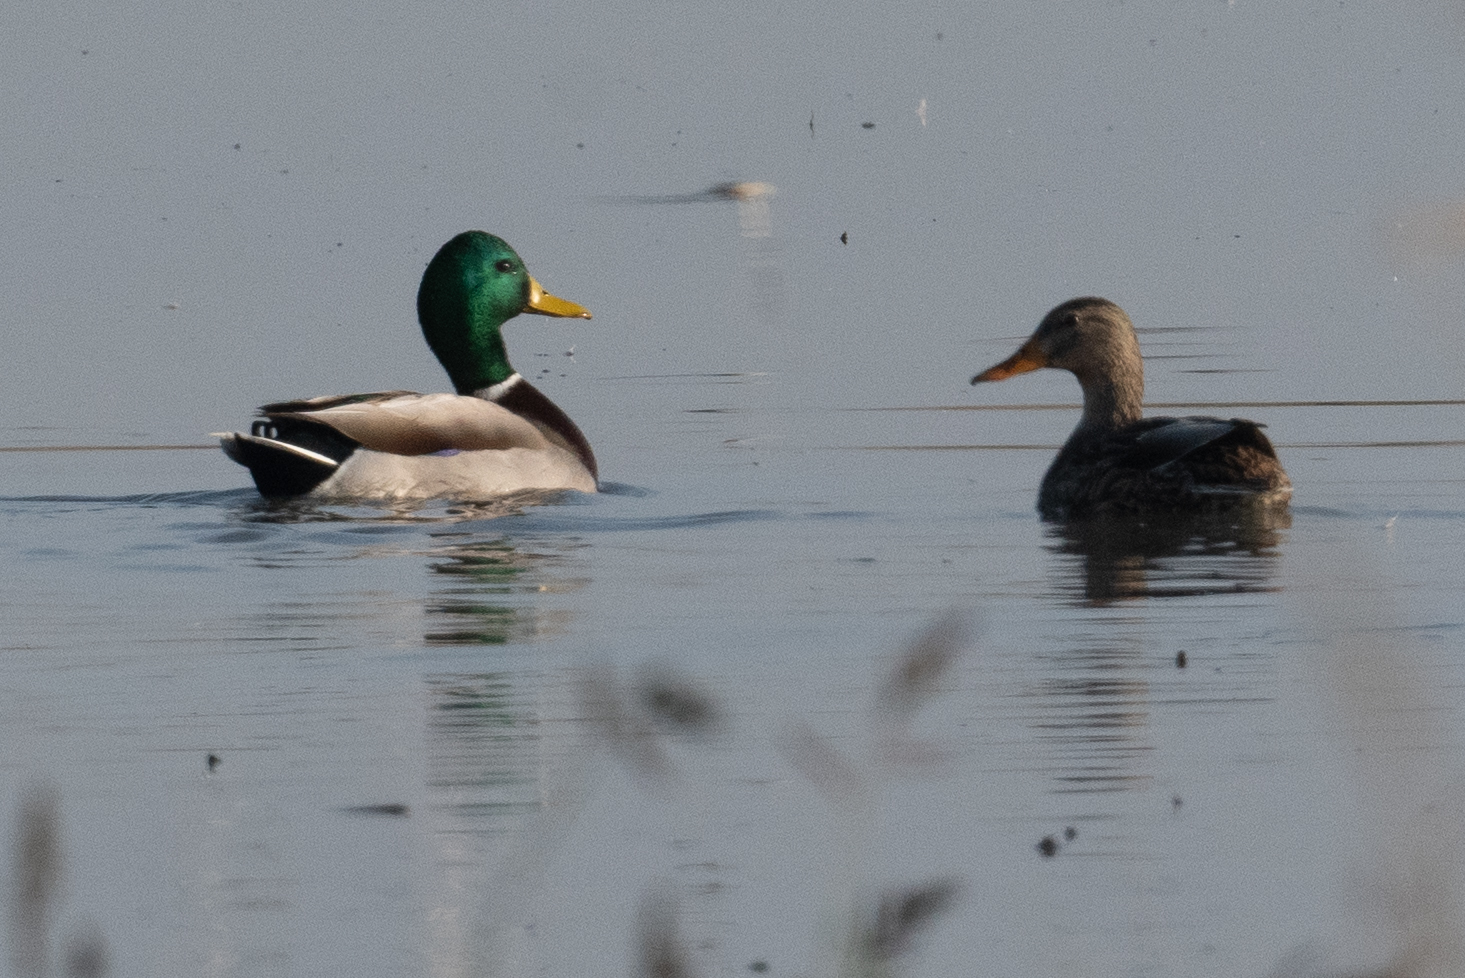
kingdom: Animalia
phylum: Chordata
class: Aves
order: Anseriformes
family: Anatidae
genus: Anas
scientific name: Anas platyrhynchos
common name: Mallard
